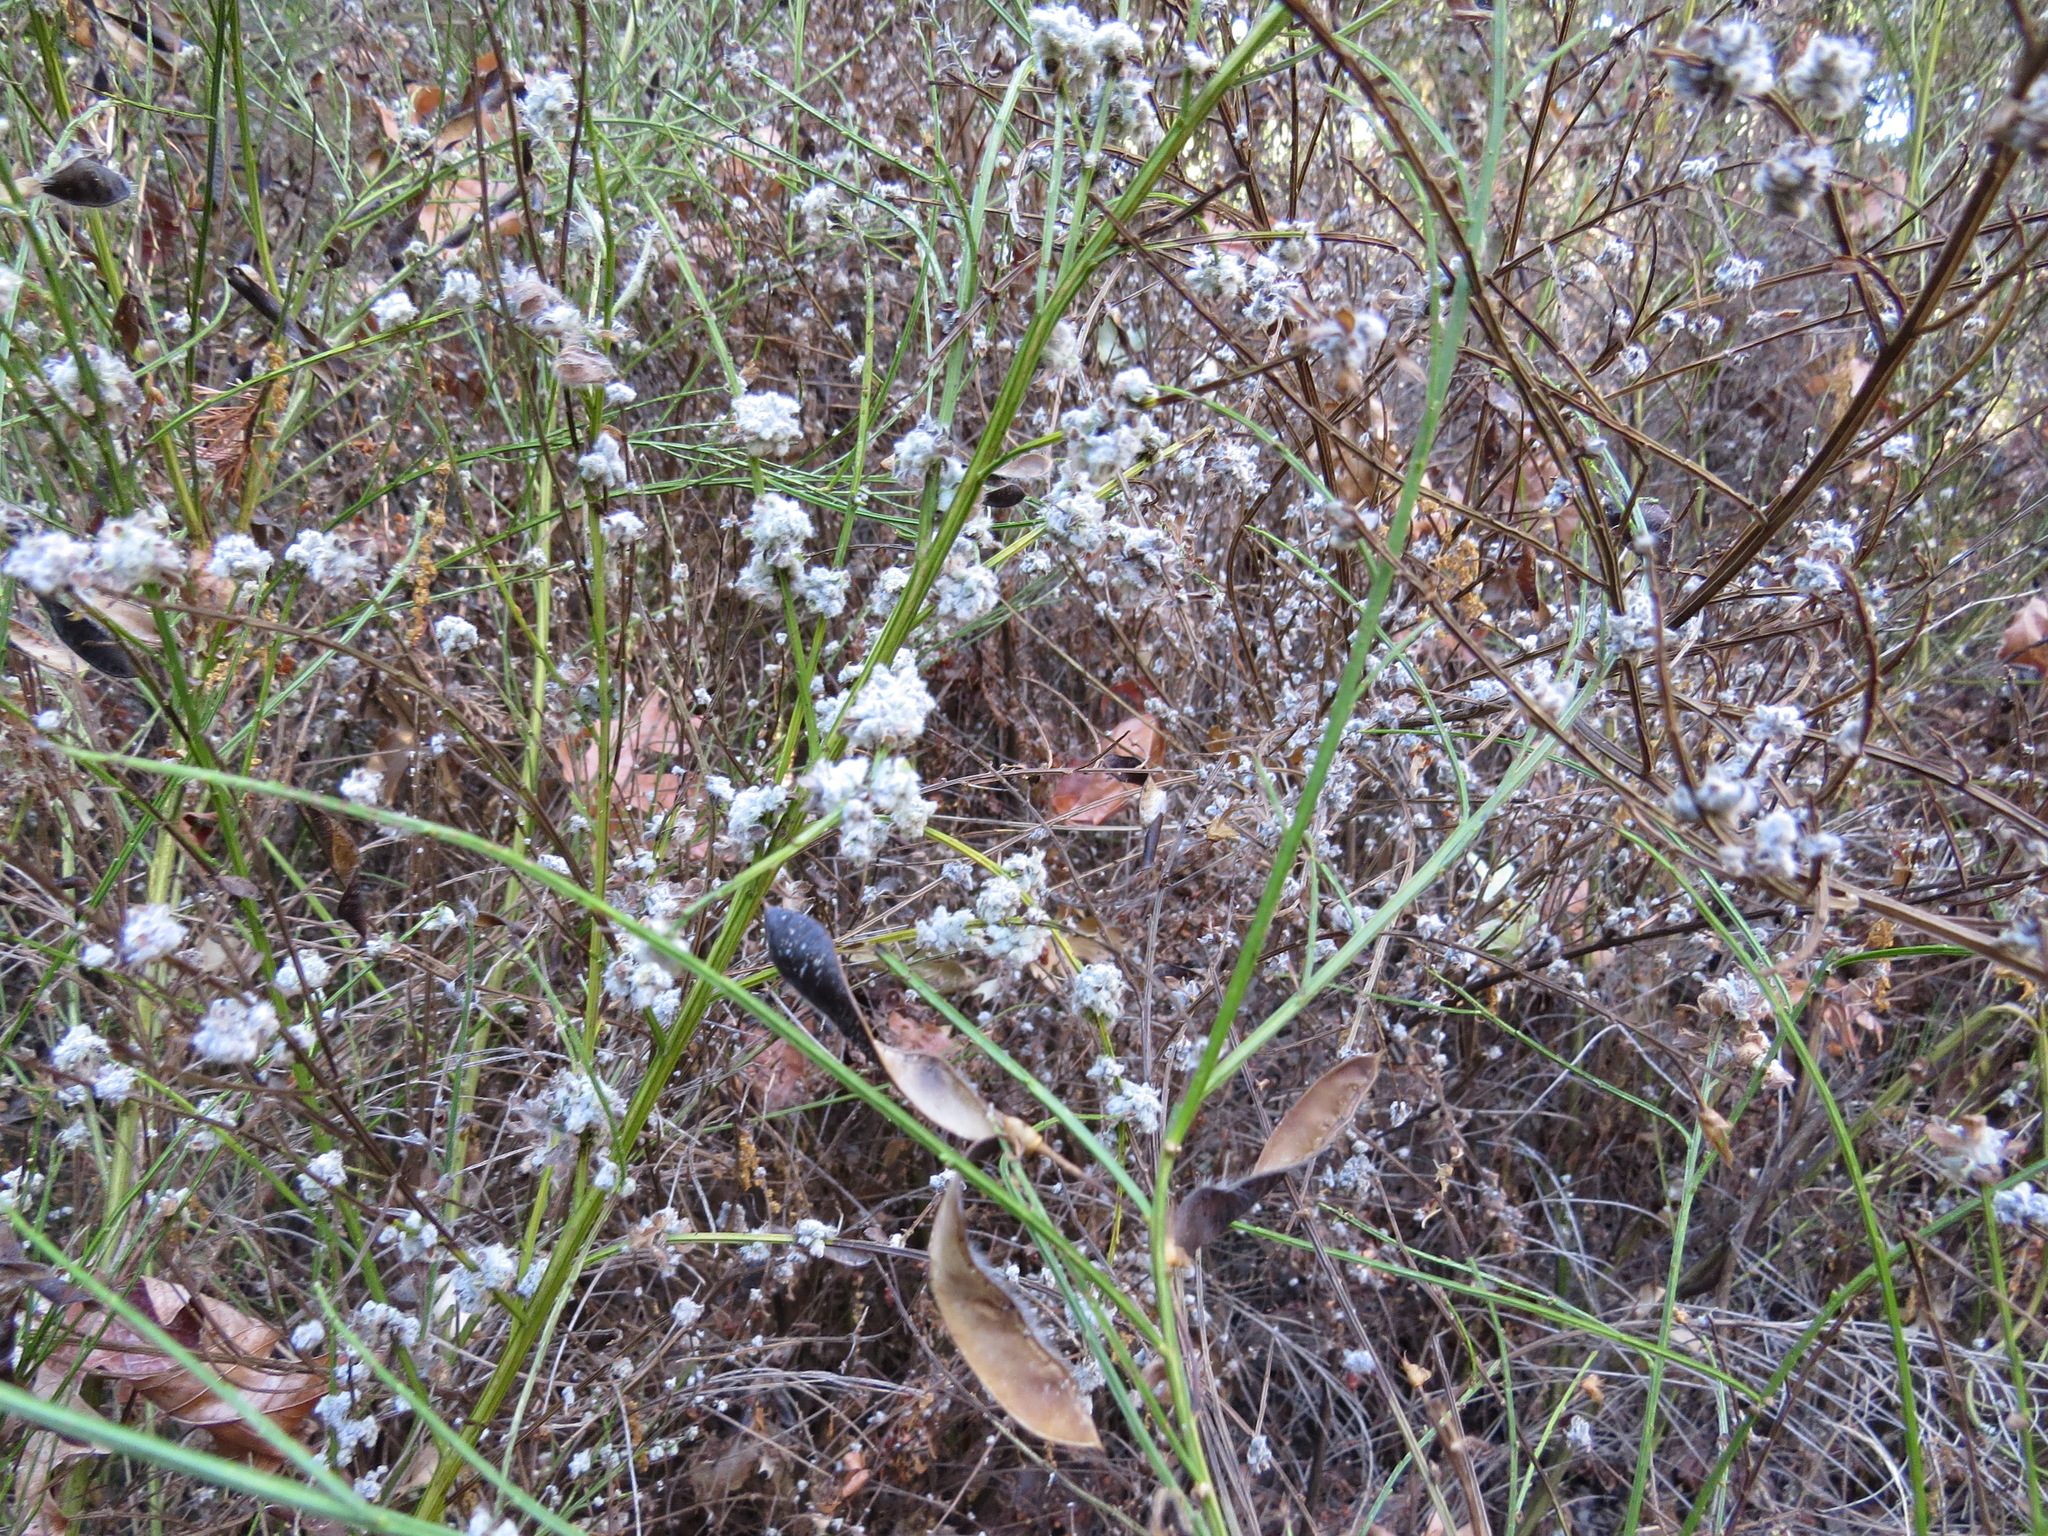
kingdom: Animalia
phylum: Arthropoda
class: Arachnida
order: Trombidiformes
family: Eriophyidae
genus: Aceria
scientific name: Aceria genistae
